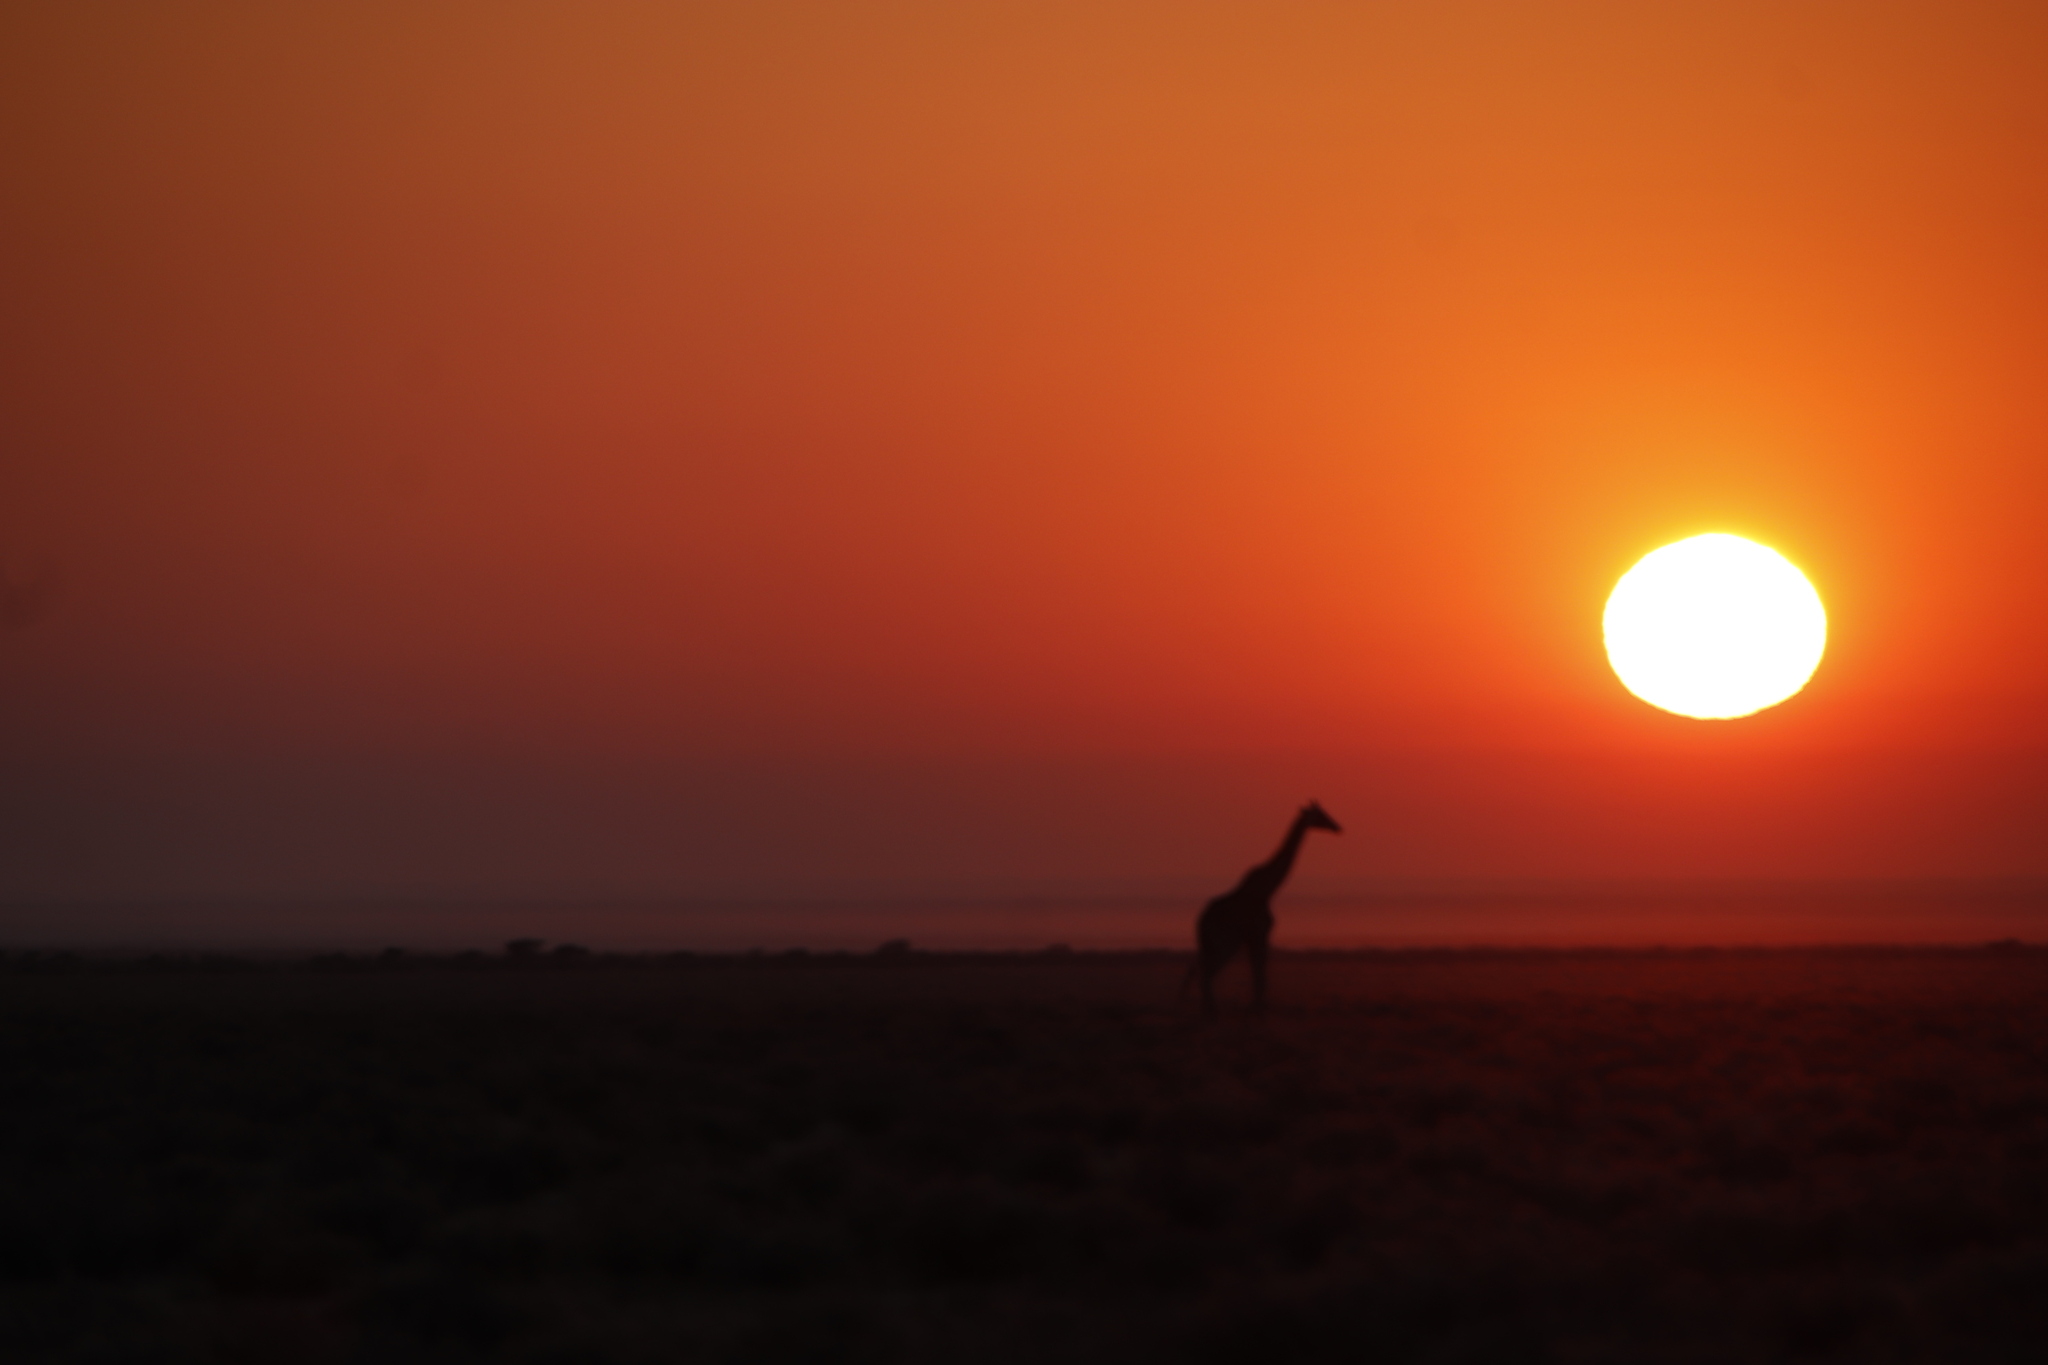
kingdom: Animalia
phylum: Chordata
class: Mammalia
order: Artiodactyla
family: Giraffidae
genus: Giraffa
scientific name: Giraffa giraffa
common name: Southern giraffe
